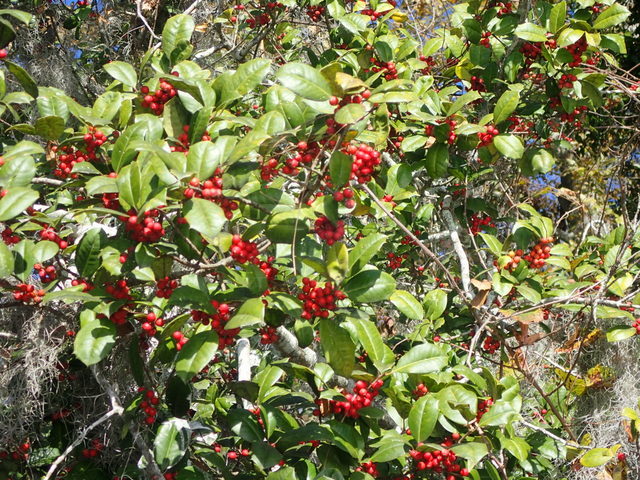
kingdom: Plantae
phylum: Tracheophyta
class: Magnoliopsida
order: Aquifoliales
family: Aquifoliaceae
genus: Ilex
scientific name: Ilex opaca
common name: American holly
